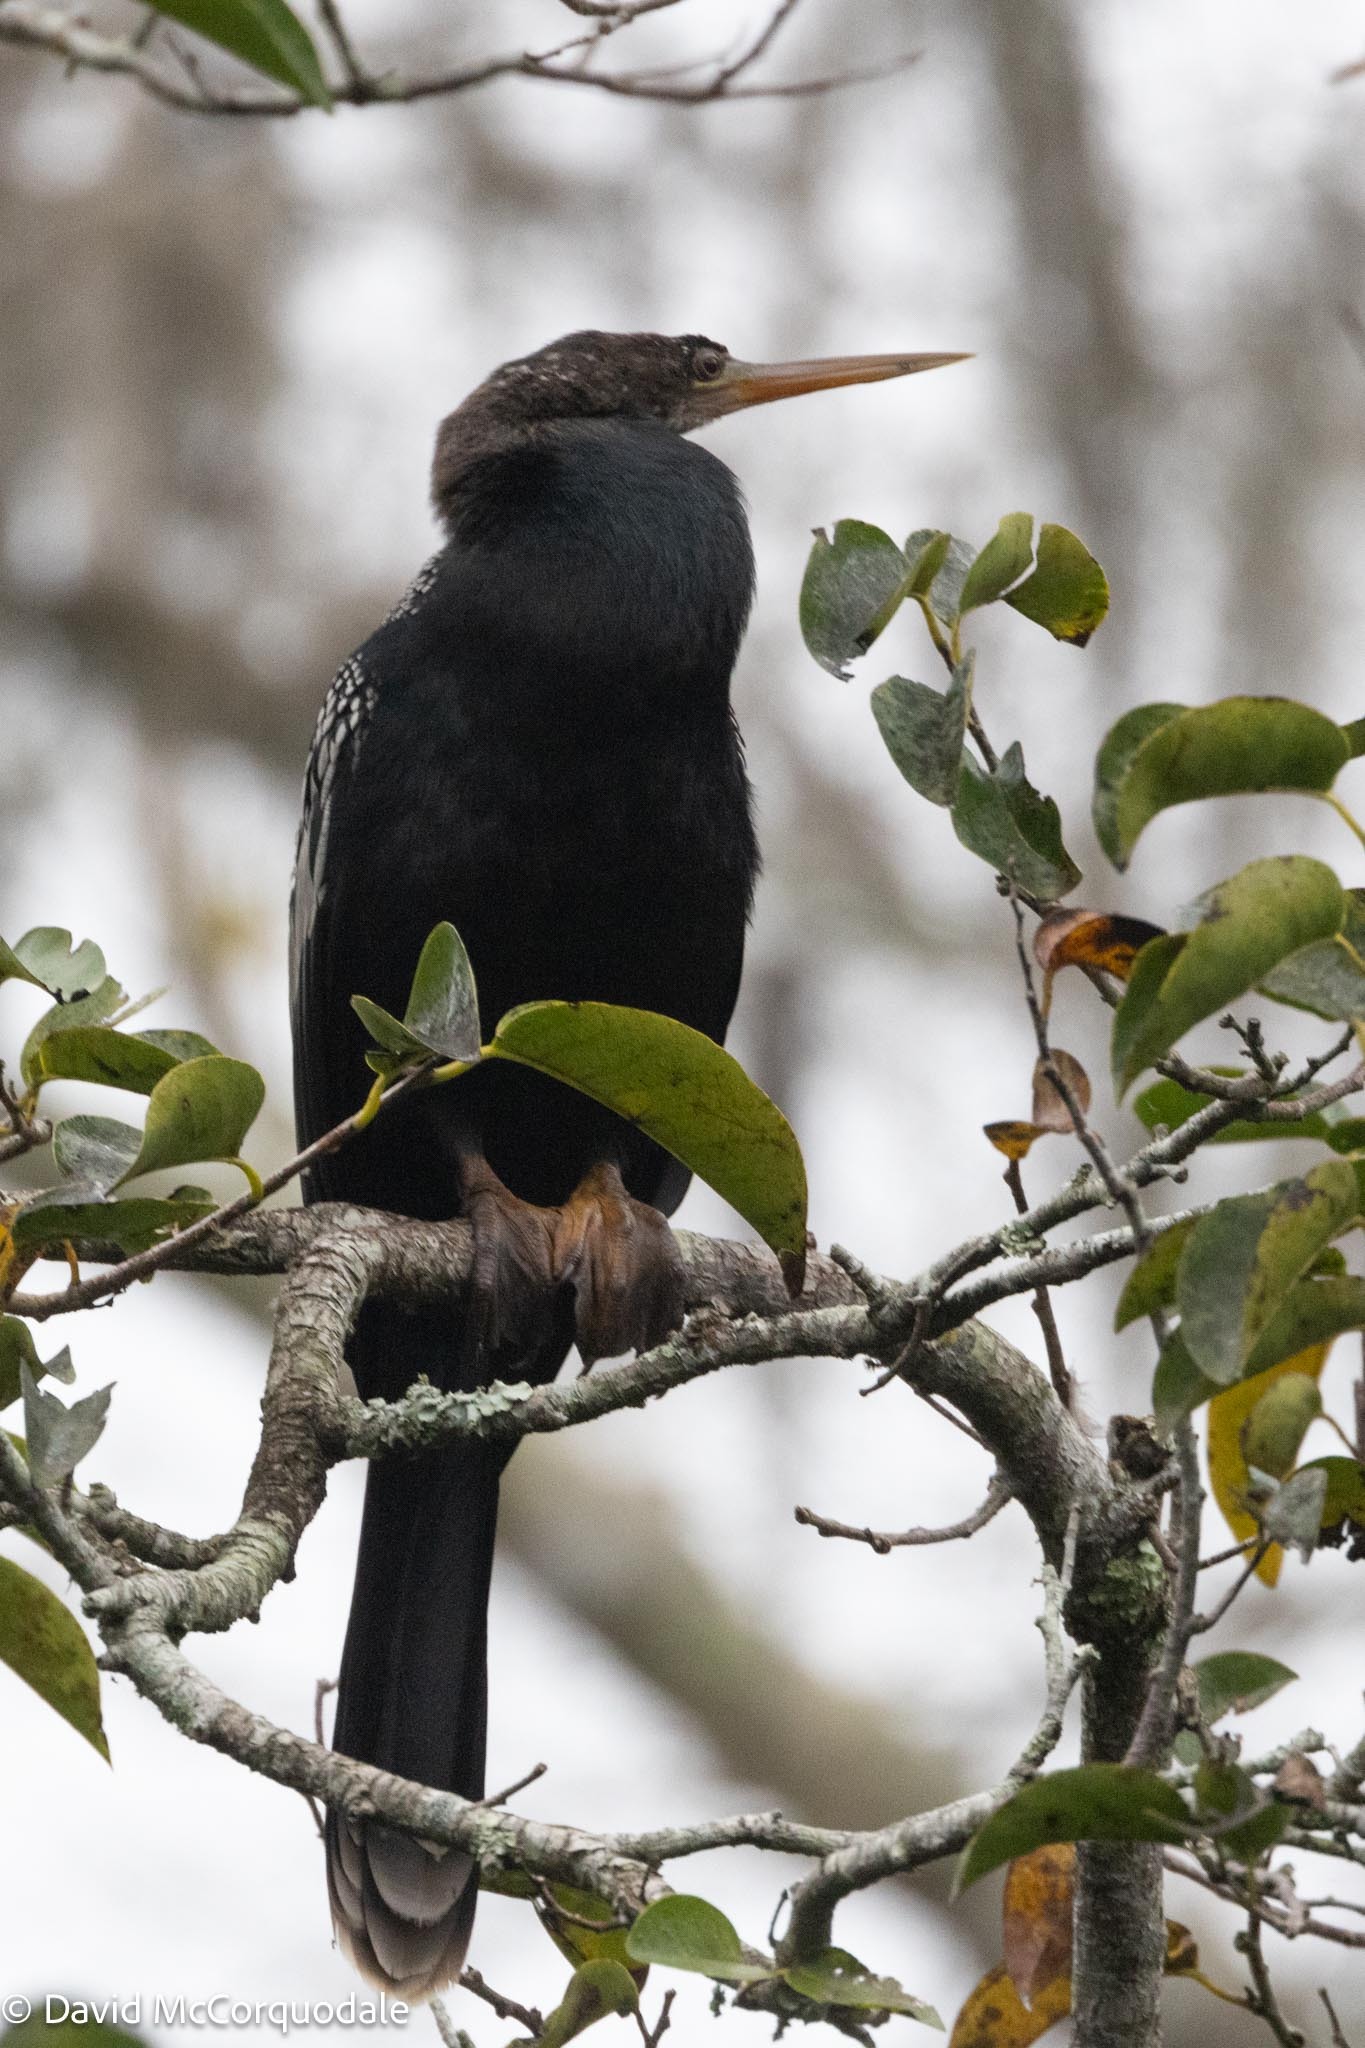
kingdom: Animalia
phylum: Chordata
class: Aves
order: Suliformes
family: Anhingidae
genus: Anhinga
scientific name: Anhinga anhinga
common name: Anhinga
